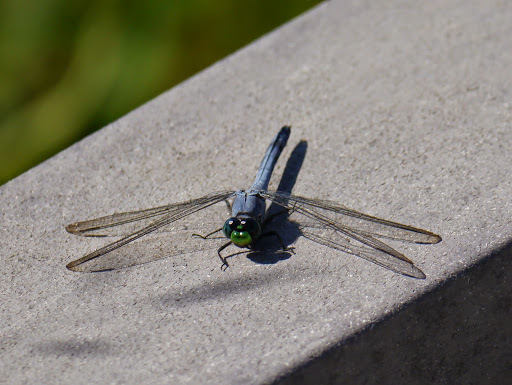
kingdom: Animalia
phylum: Arthropoda
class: Insecta
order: Odonata
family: Libellulidae
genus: Erythemis
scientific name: Erythemis simplicicollis
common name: Eastern pondhawk
